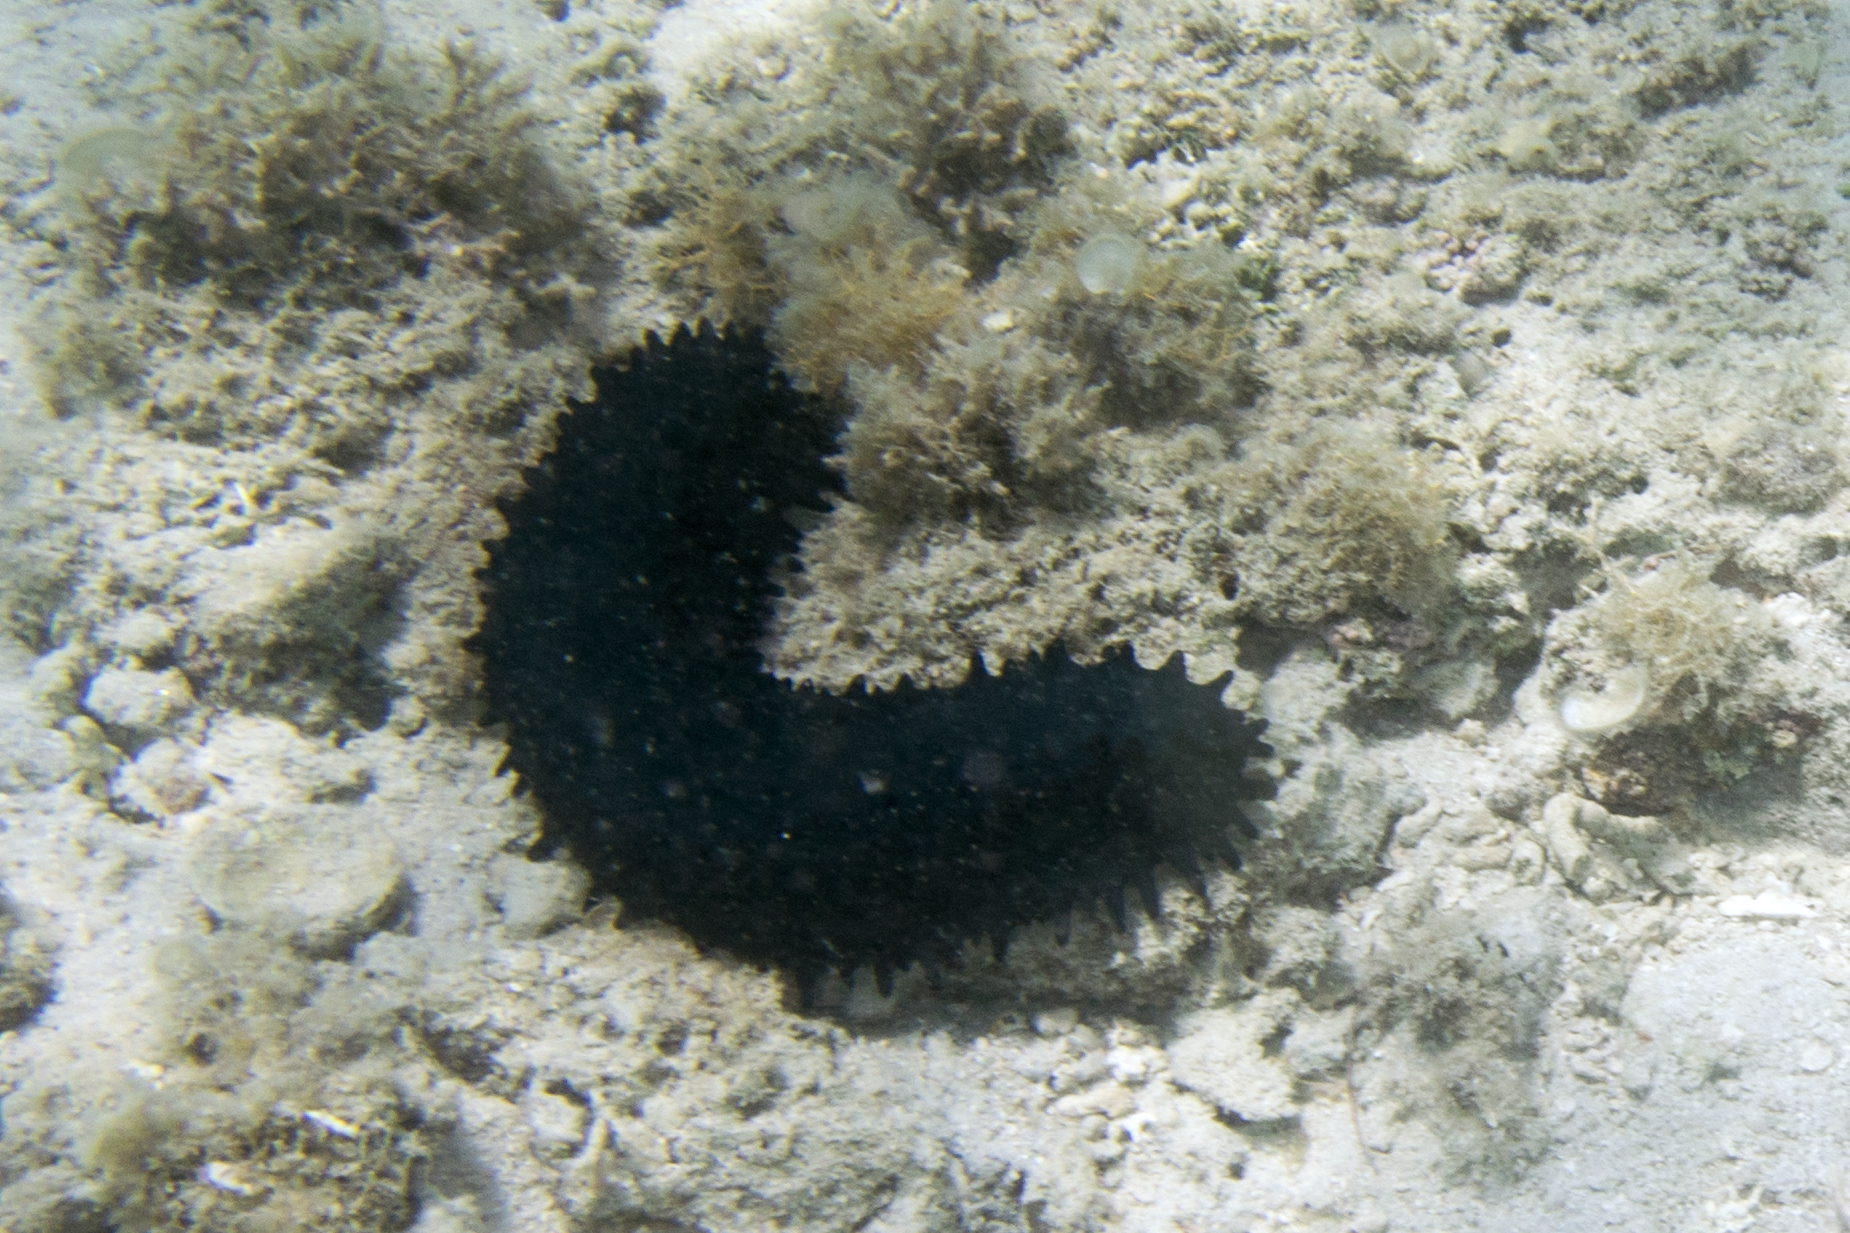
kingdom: Animalia
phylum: Echinodermata
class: Holothuroidea
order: Synallactida
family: Stichopodidae
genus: Stichopus
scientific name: Stichopus chloronotus
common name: Greenfish
